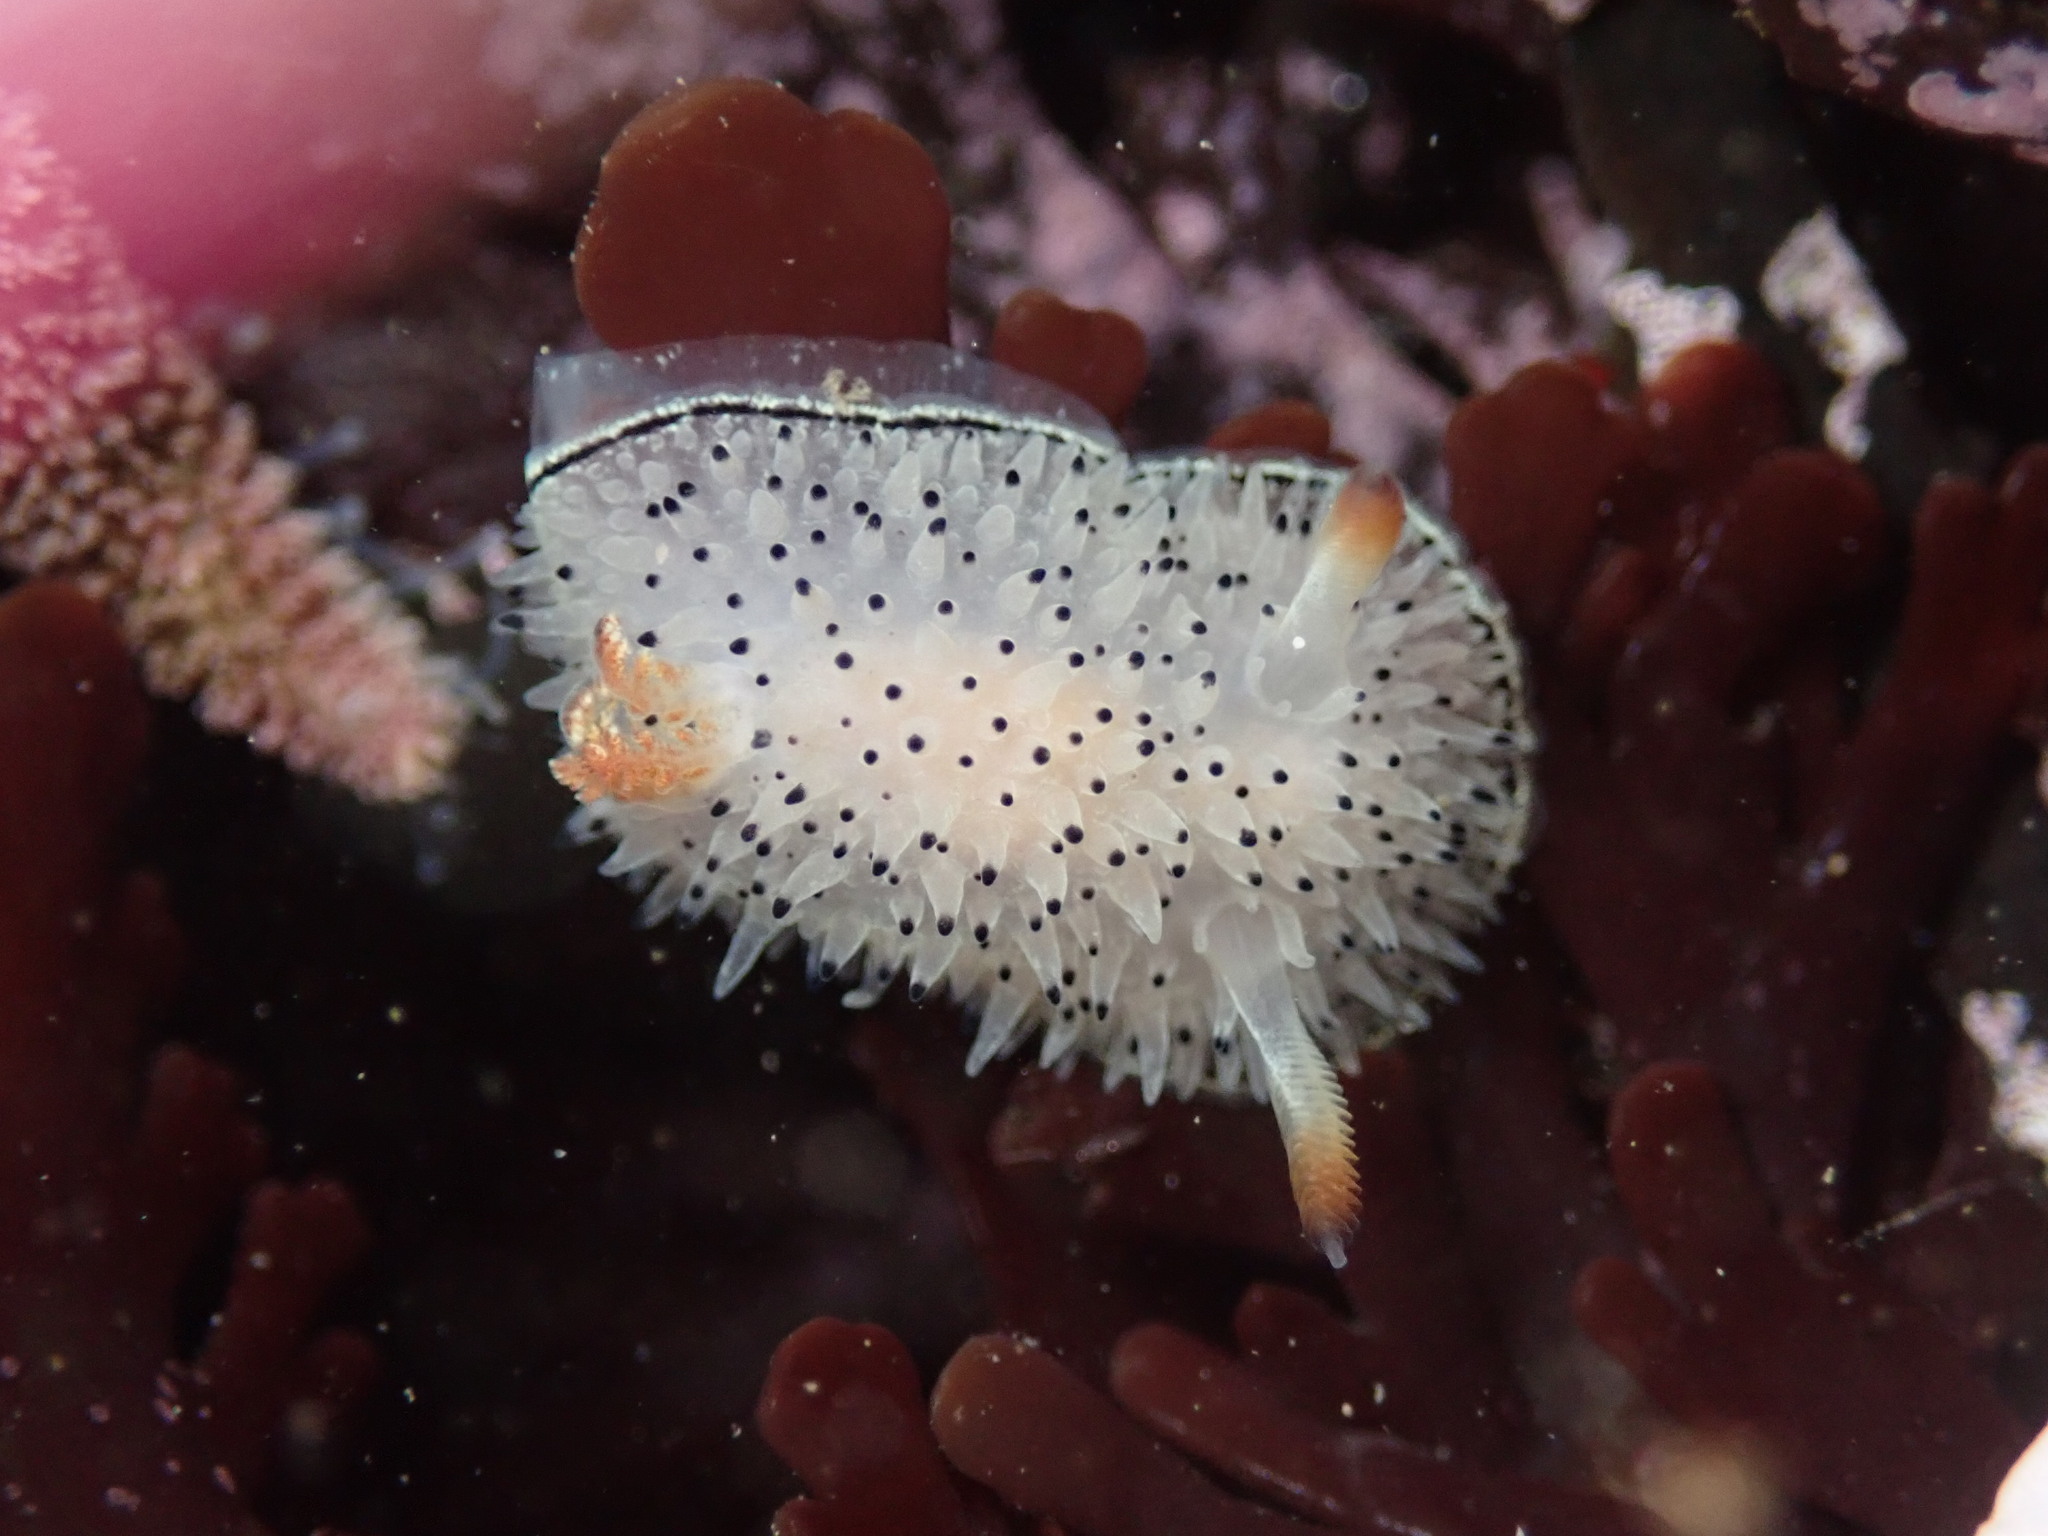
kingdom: Animalia
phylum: Mollusca
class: Gastropoda
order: Nudibranchia
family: Onchidorididae
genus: Acanthodoris
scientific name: Acanthodoris rhodoceras
